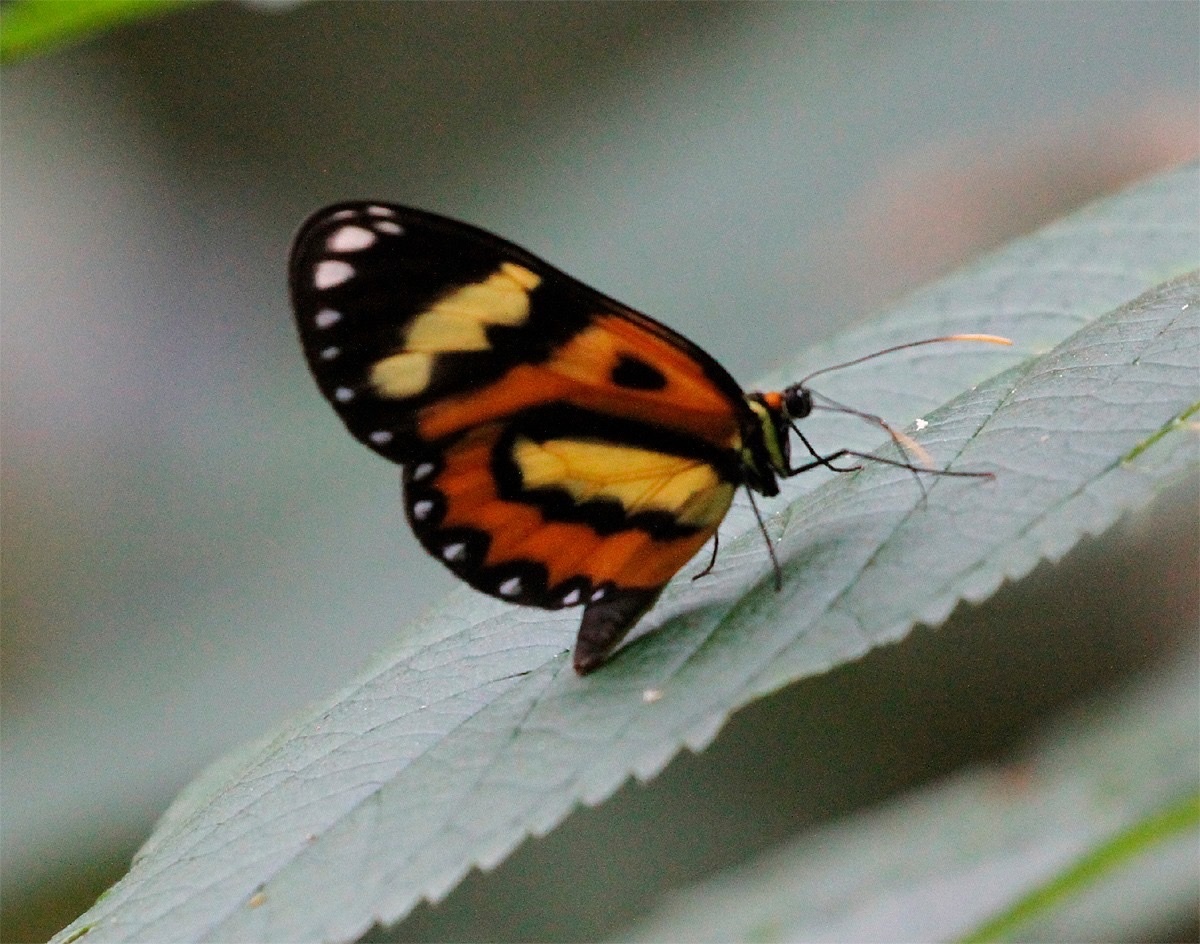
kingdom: Animalia
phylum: Arthropoda
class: Insecta
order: Lepidoptera
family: Nymphalidae
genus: Placidina
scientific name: Placidina euryanassa
